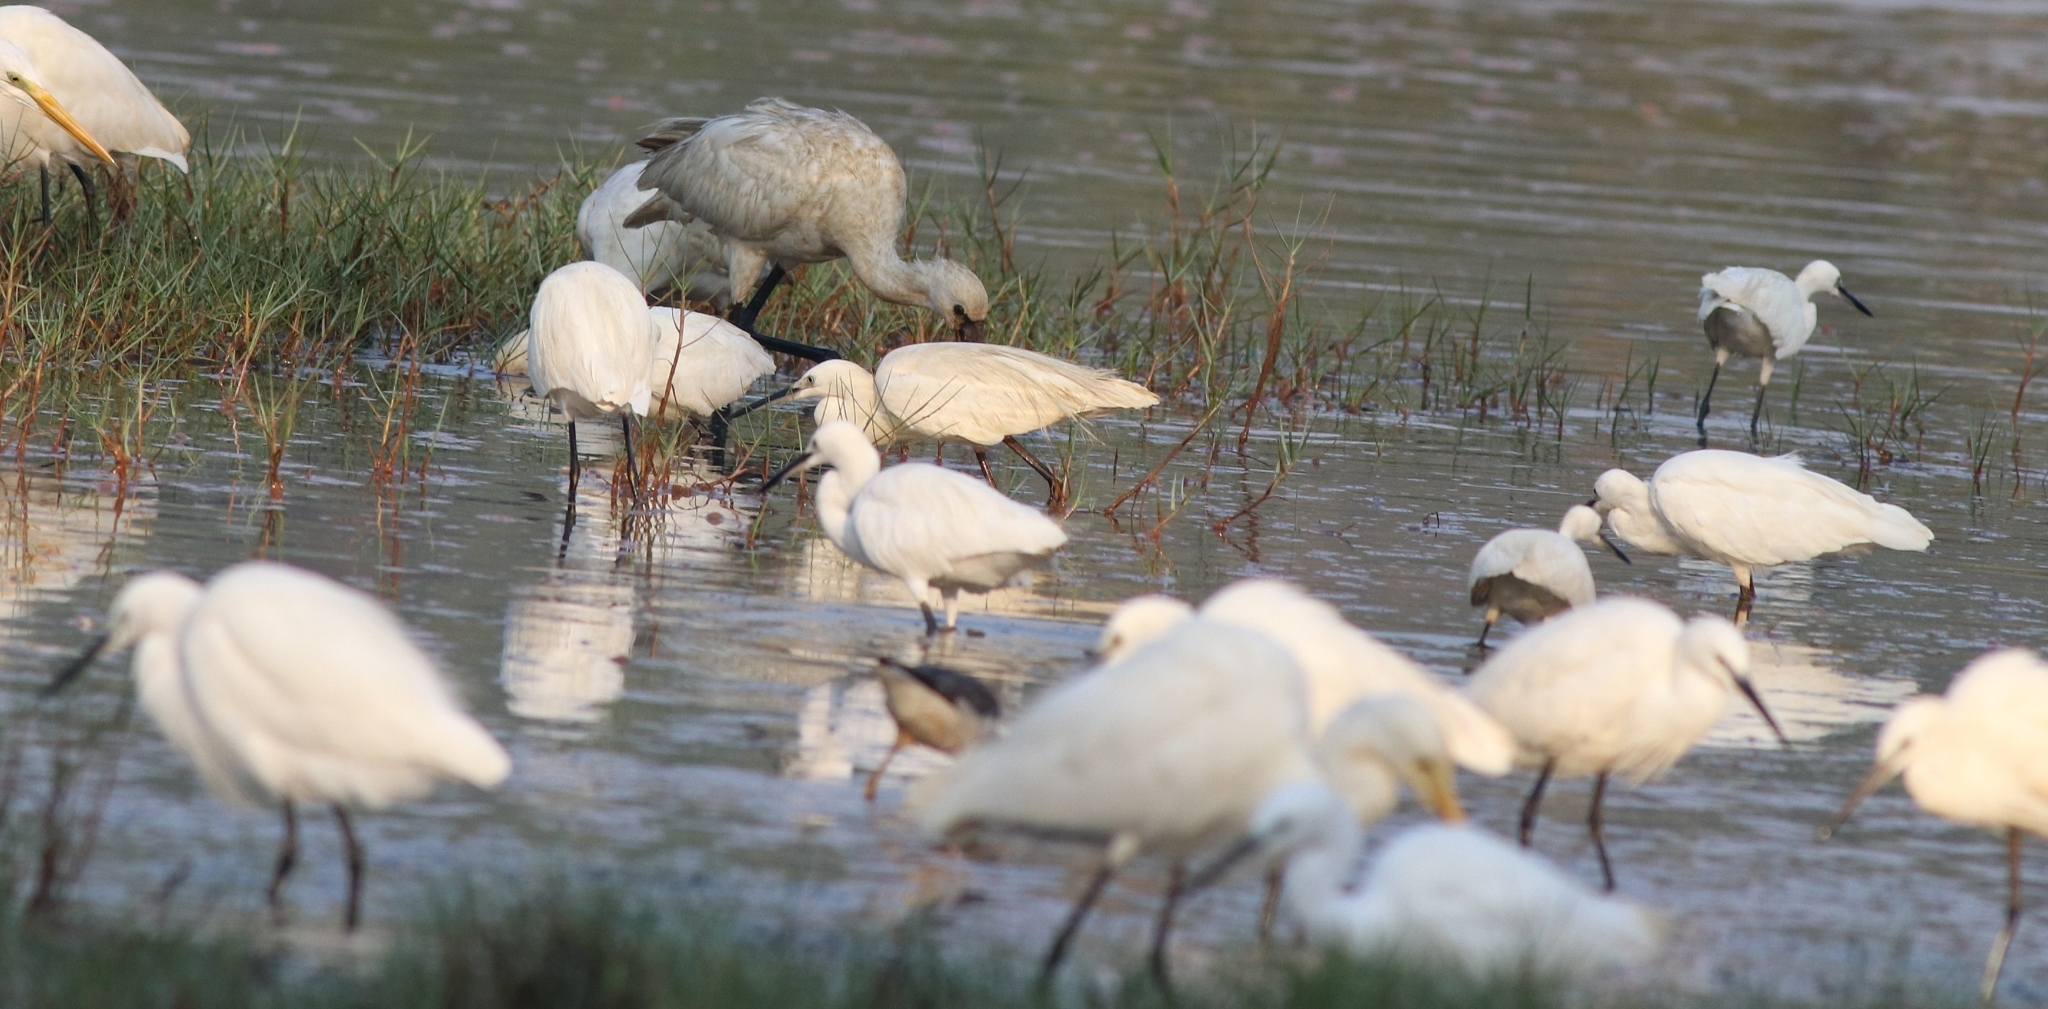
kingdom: Animalia
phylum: Chordata
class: Aves
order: Pelecaniformes
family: Ardeidae
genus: Egretta
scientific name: Egretta garzetta
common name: Little egret
